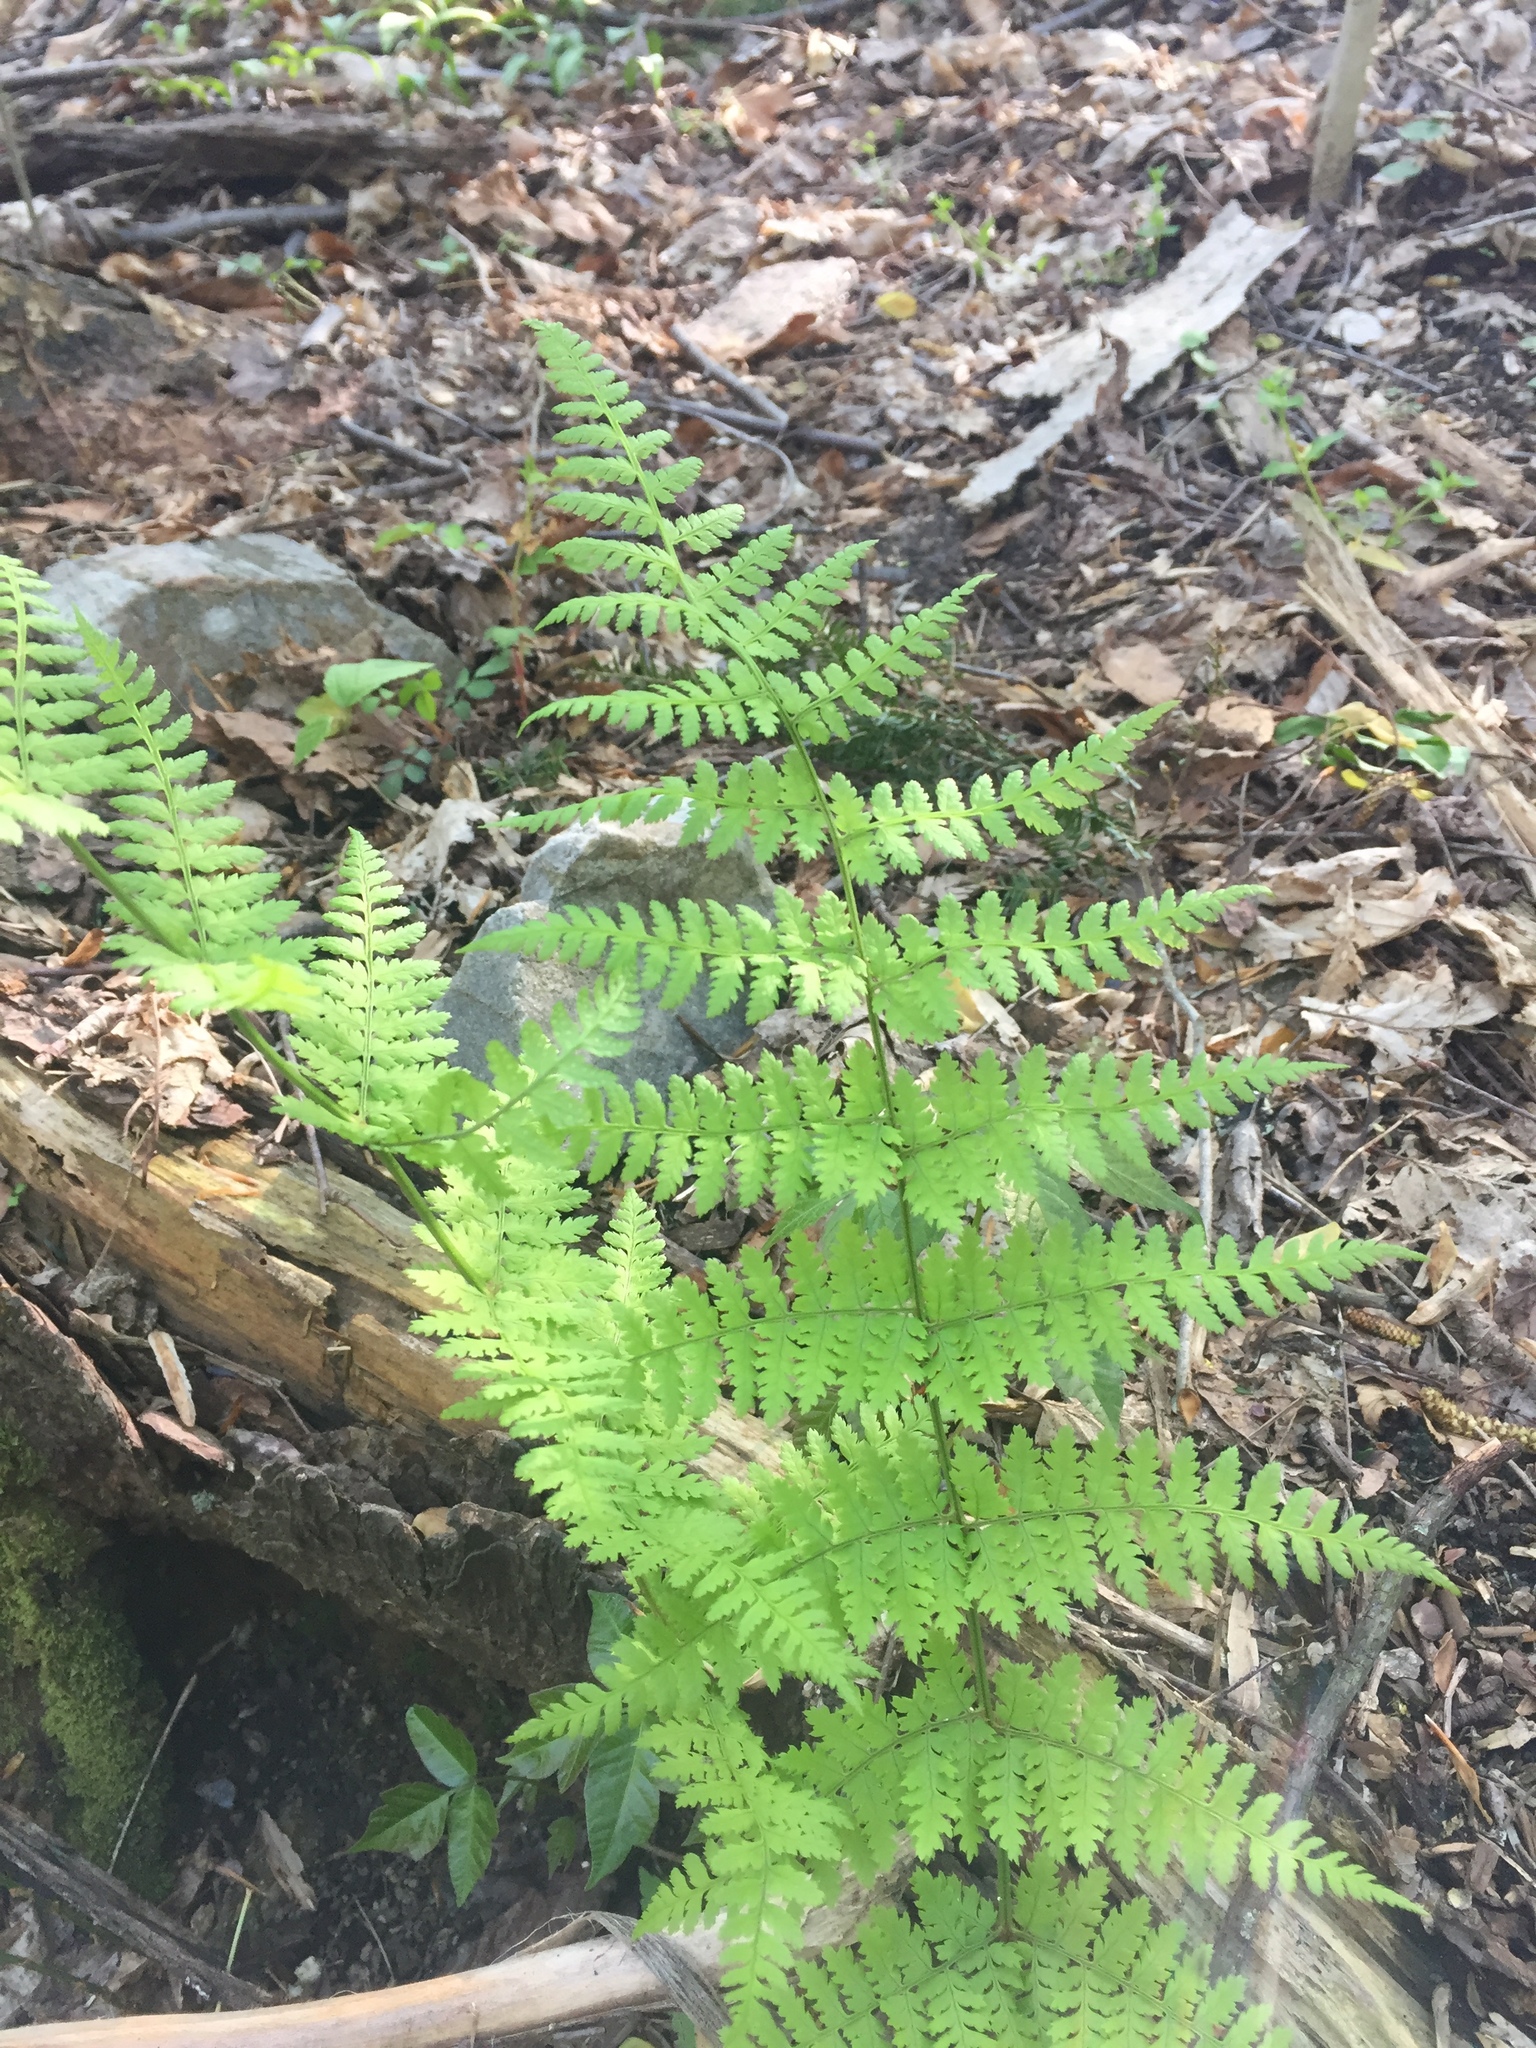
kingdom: Plantae
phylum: Tracheophyta
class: Polypodiopsida
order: Polypodiales
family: Dryopteridaceae
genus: Dryopteris
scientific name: Dryopteris intermedia
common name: Evergreen wood fern
